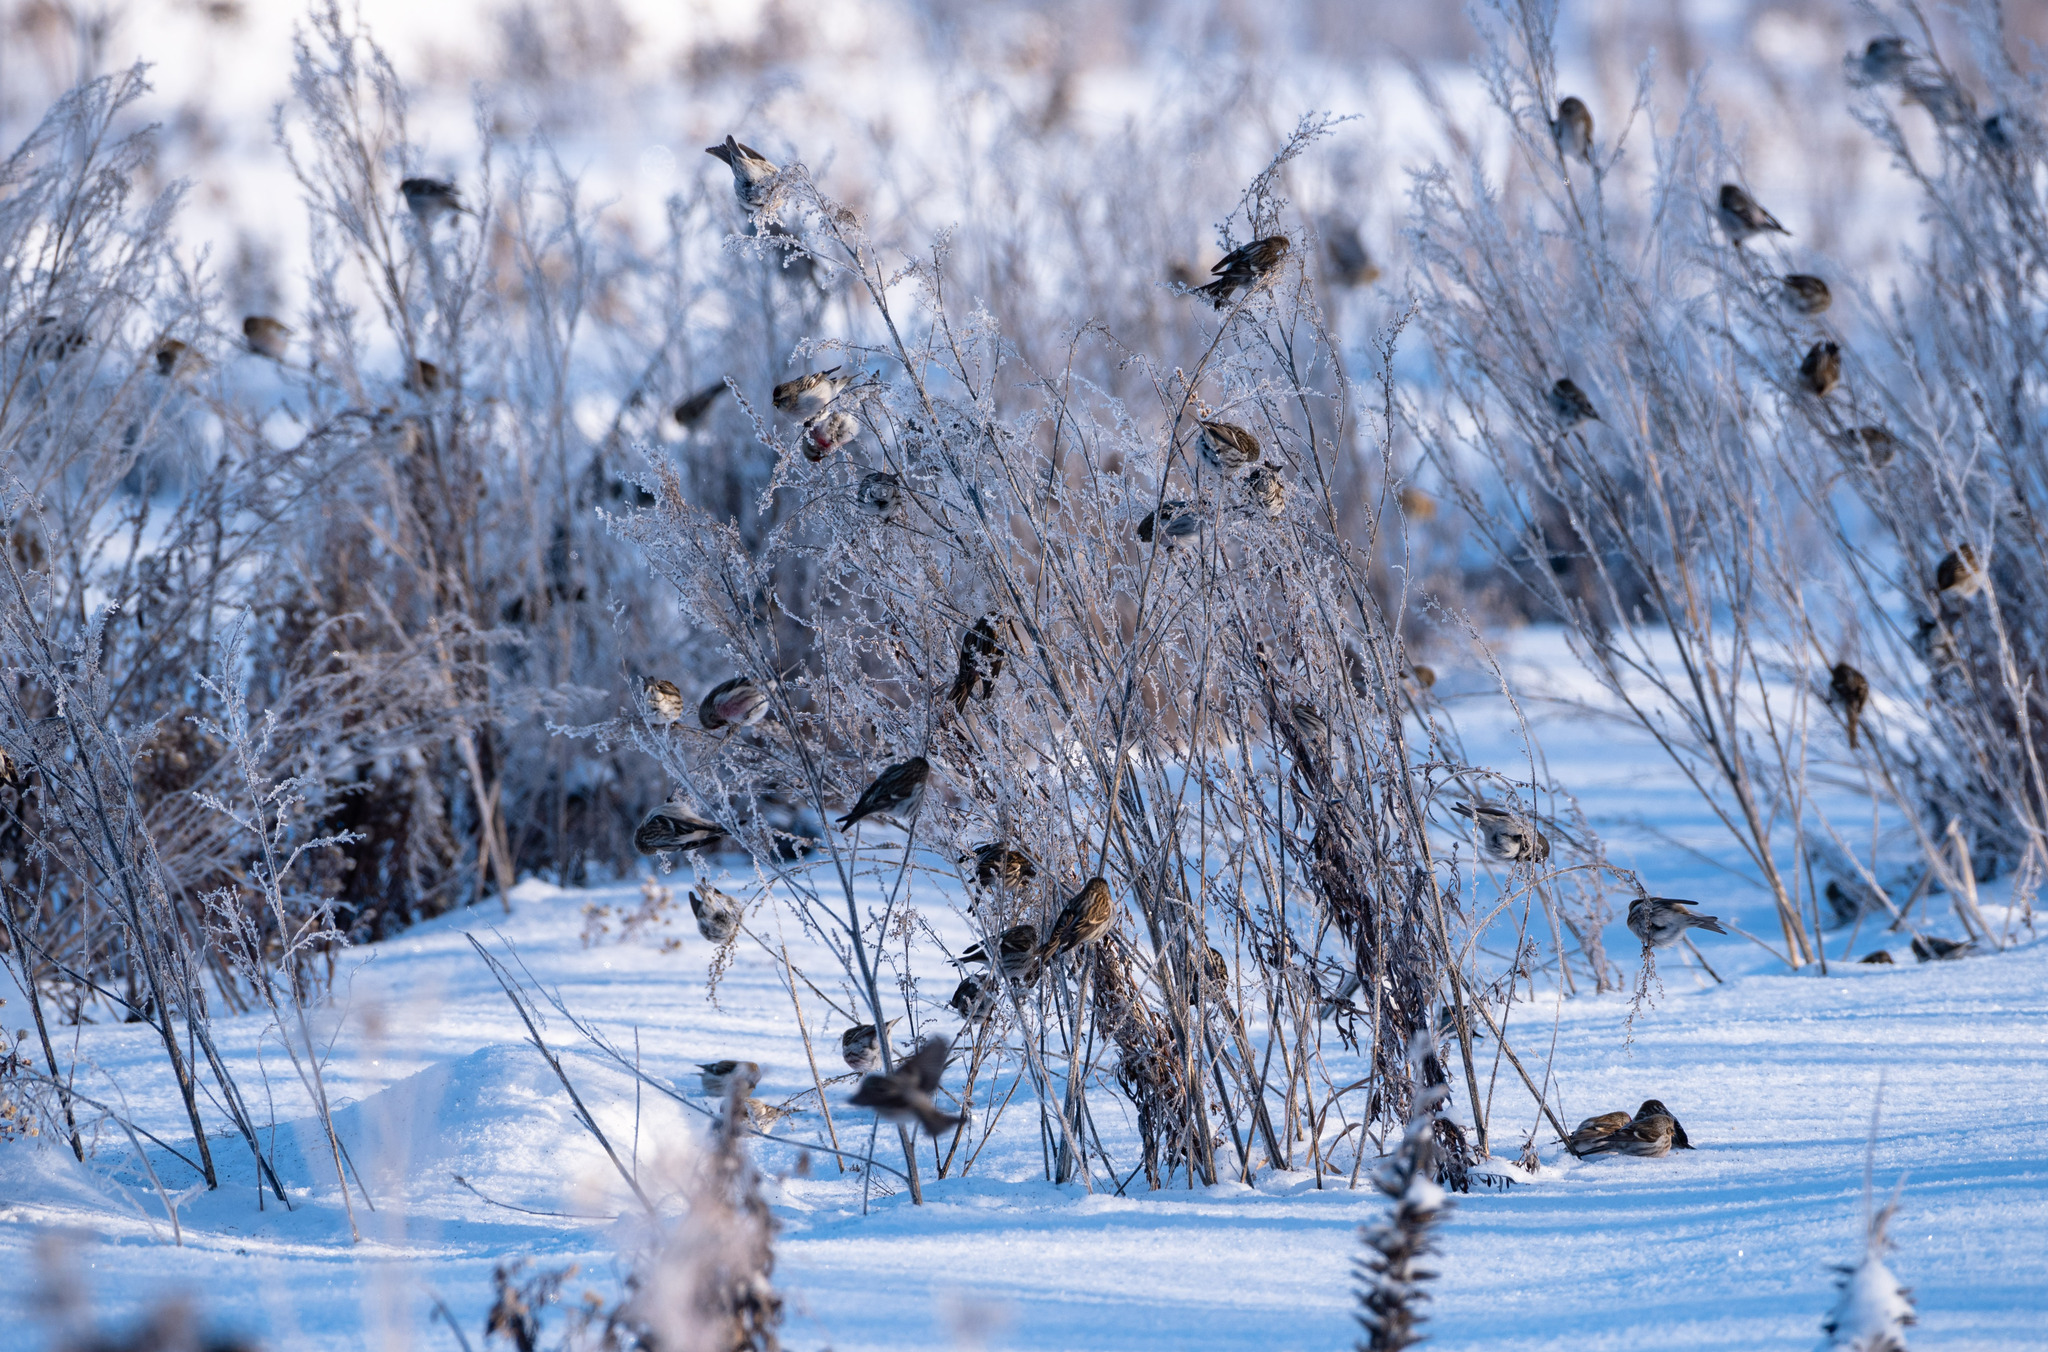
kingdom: Animalia
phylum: Chordata
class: Aves
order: Passeriformes
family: Fringillidae
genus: Acanthis
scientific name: Acanthis flammea
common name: Common redpoll
